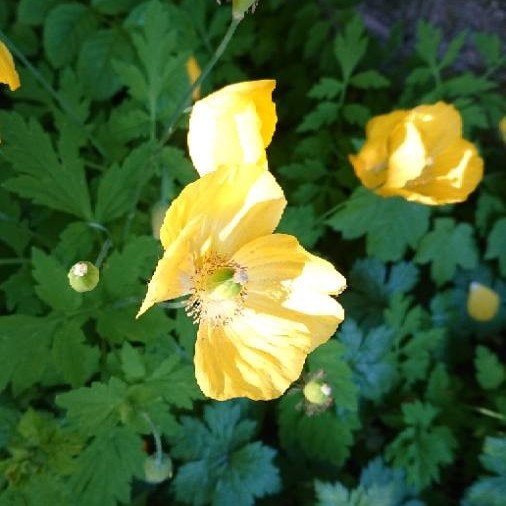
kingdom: Plantae
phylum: Tracheophyta
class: Magnoliopsida
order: Ranunculales
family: Papaveraceae
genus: Papaver
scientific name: Papaver cambricum
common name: Poppy
